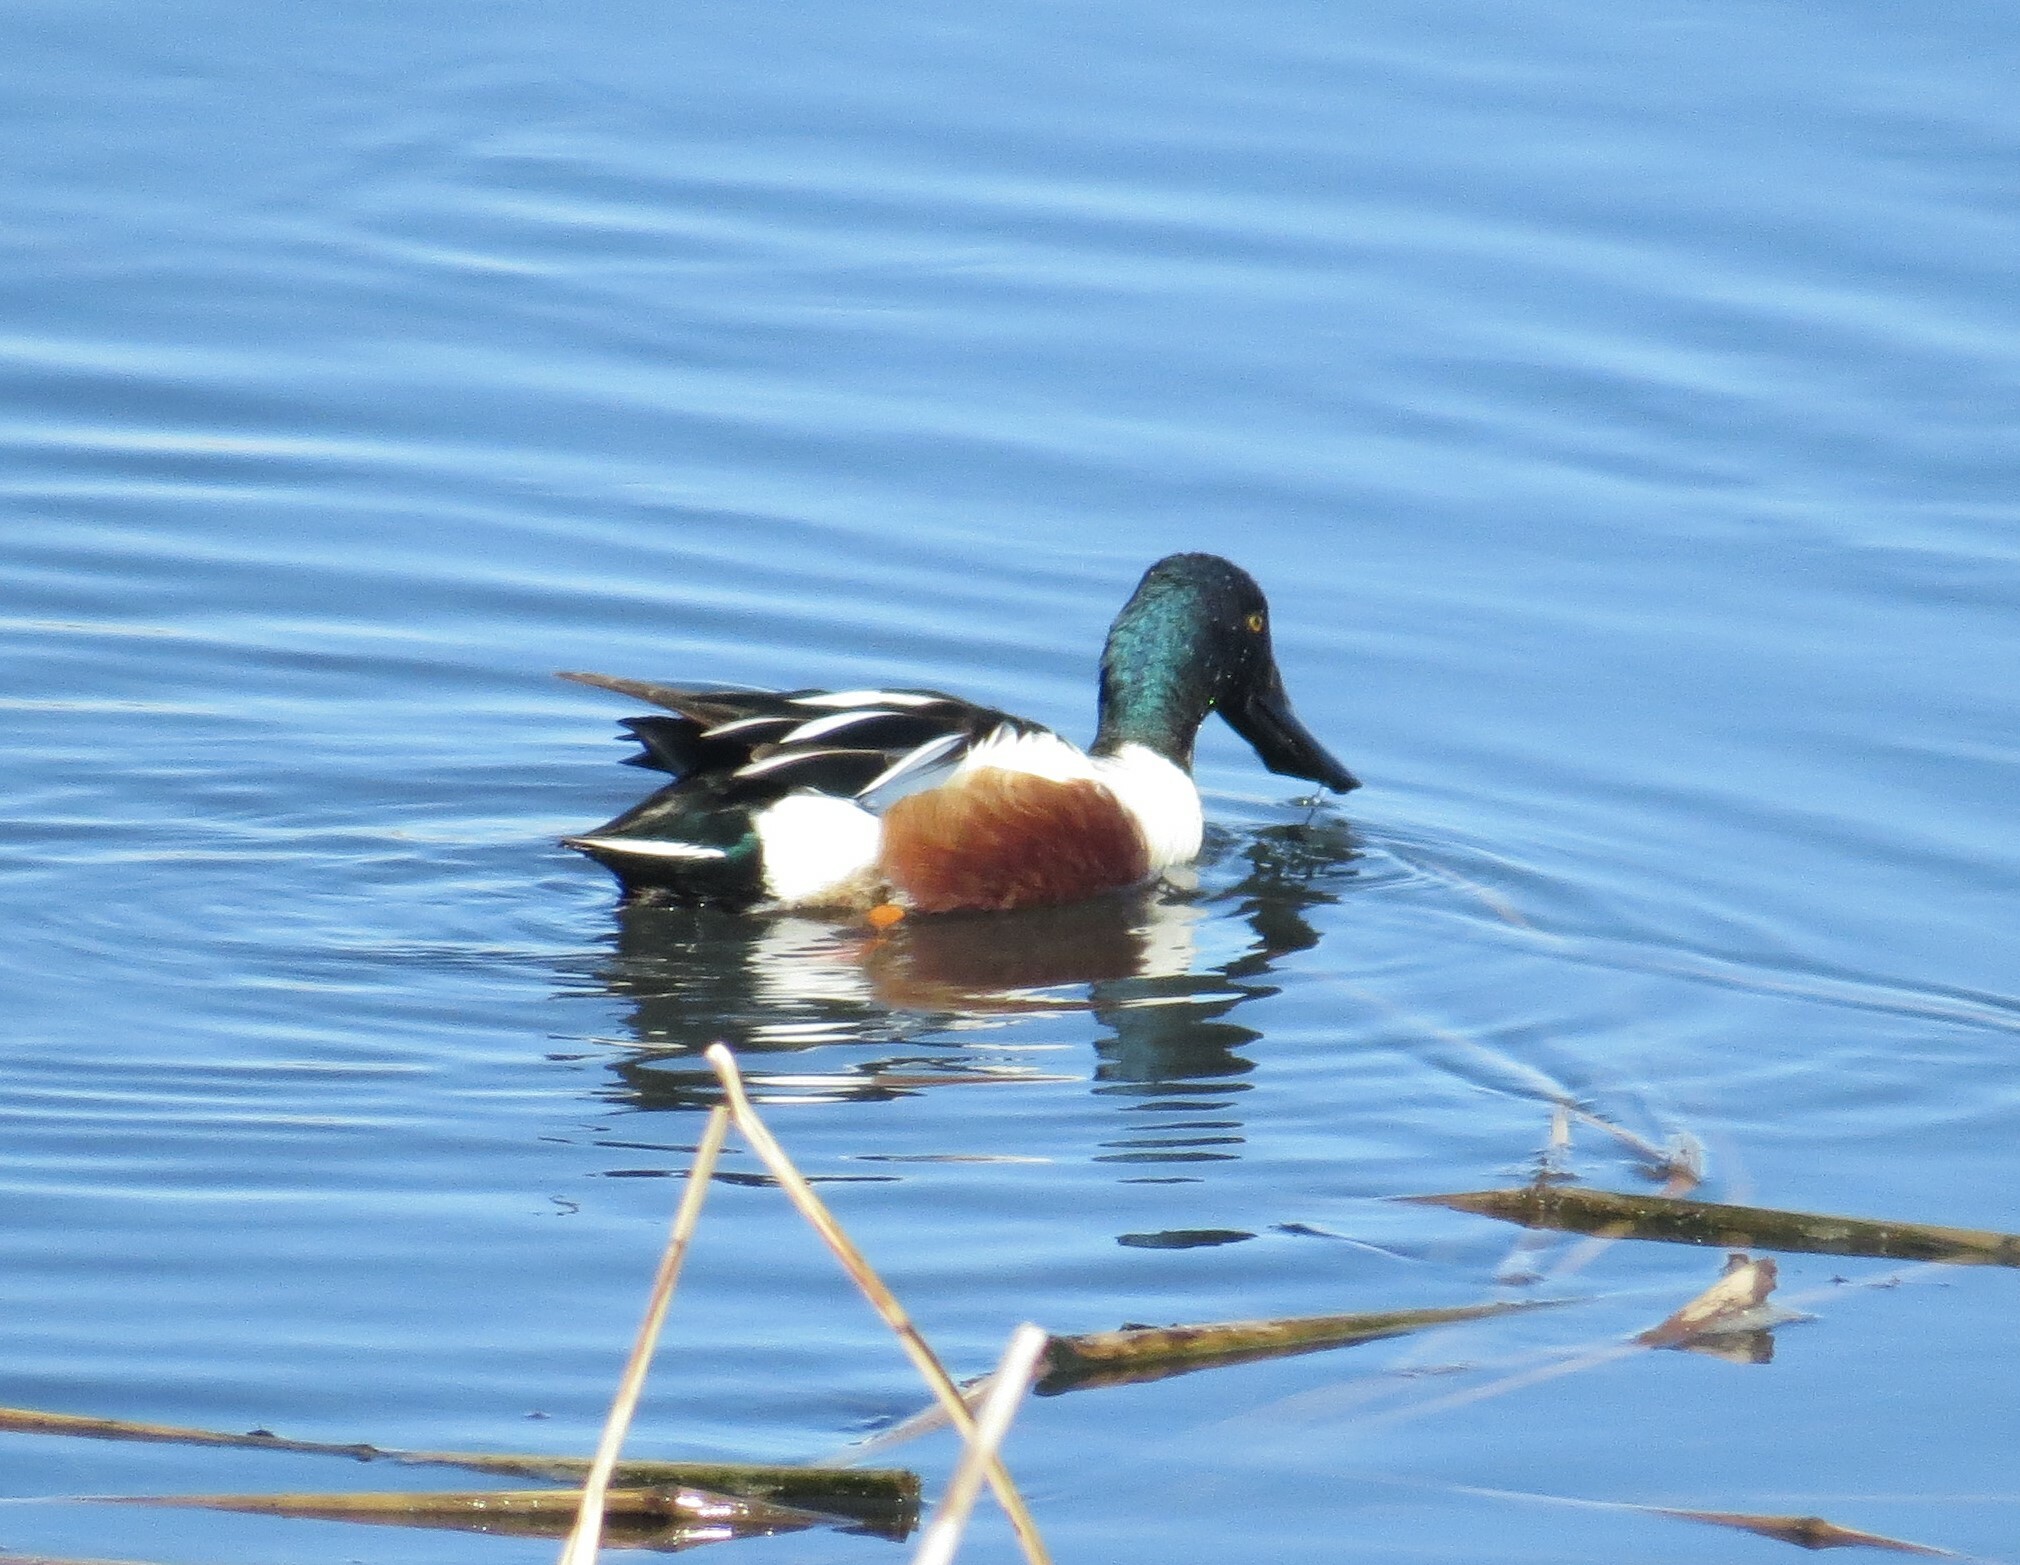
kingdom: Animalia
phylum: Chordata
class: Aves
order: Anseriformes
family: Anatidae
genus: Spatula
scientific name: Spatula clypeata
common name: Northern shoveler
